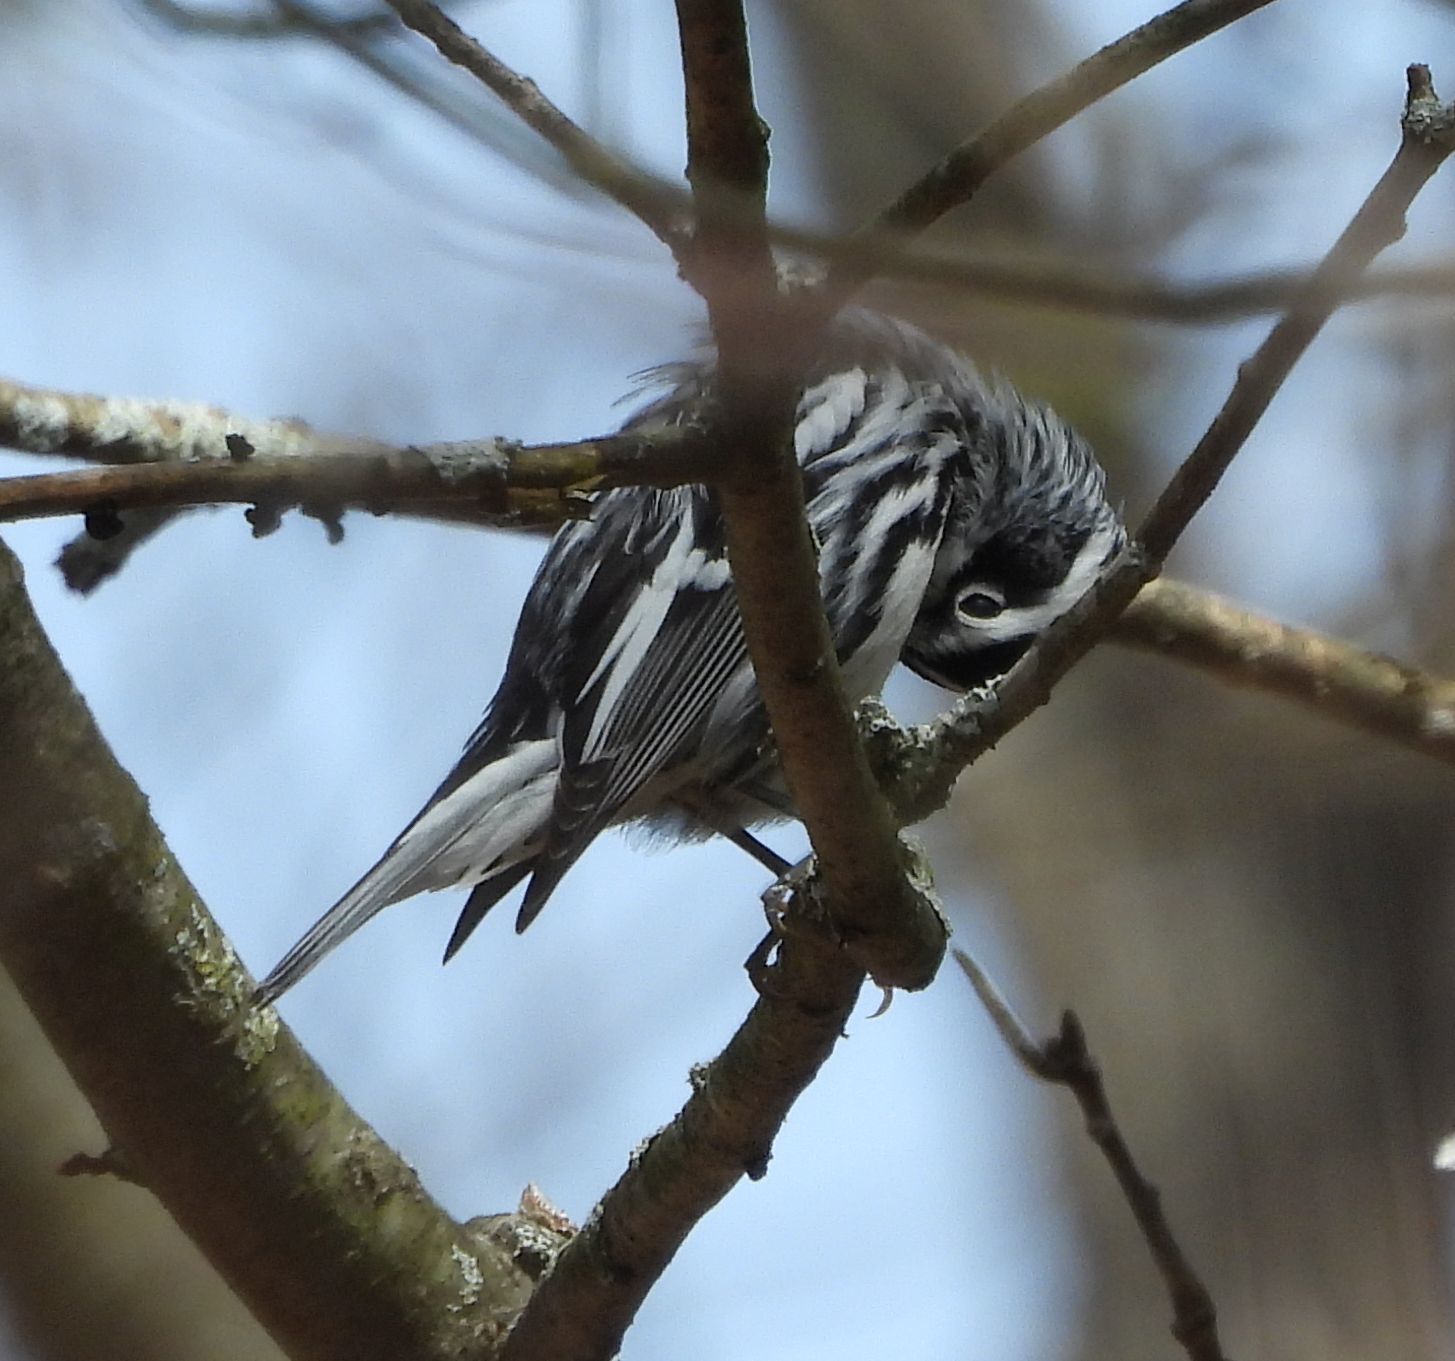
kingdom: Animalia
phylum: Chordata
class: Aves
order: Passeriformes
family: Parulidae
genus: Mniotilta
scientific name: Mniotilta varia
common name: Black-and-white warbler
